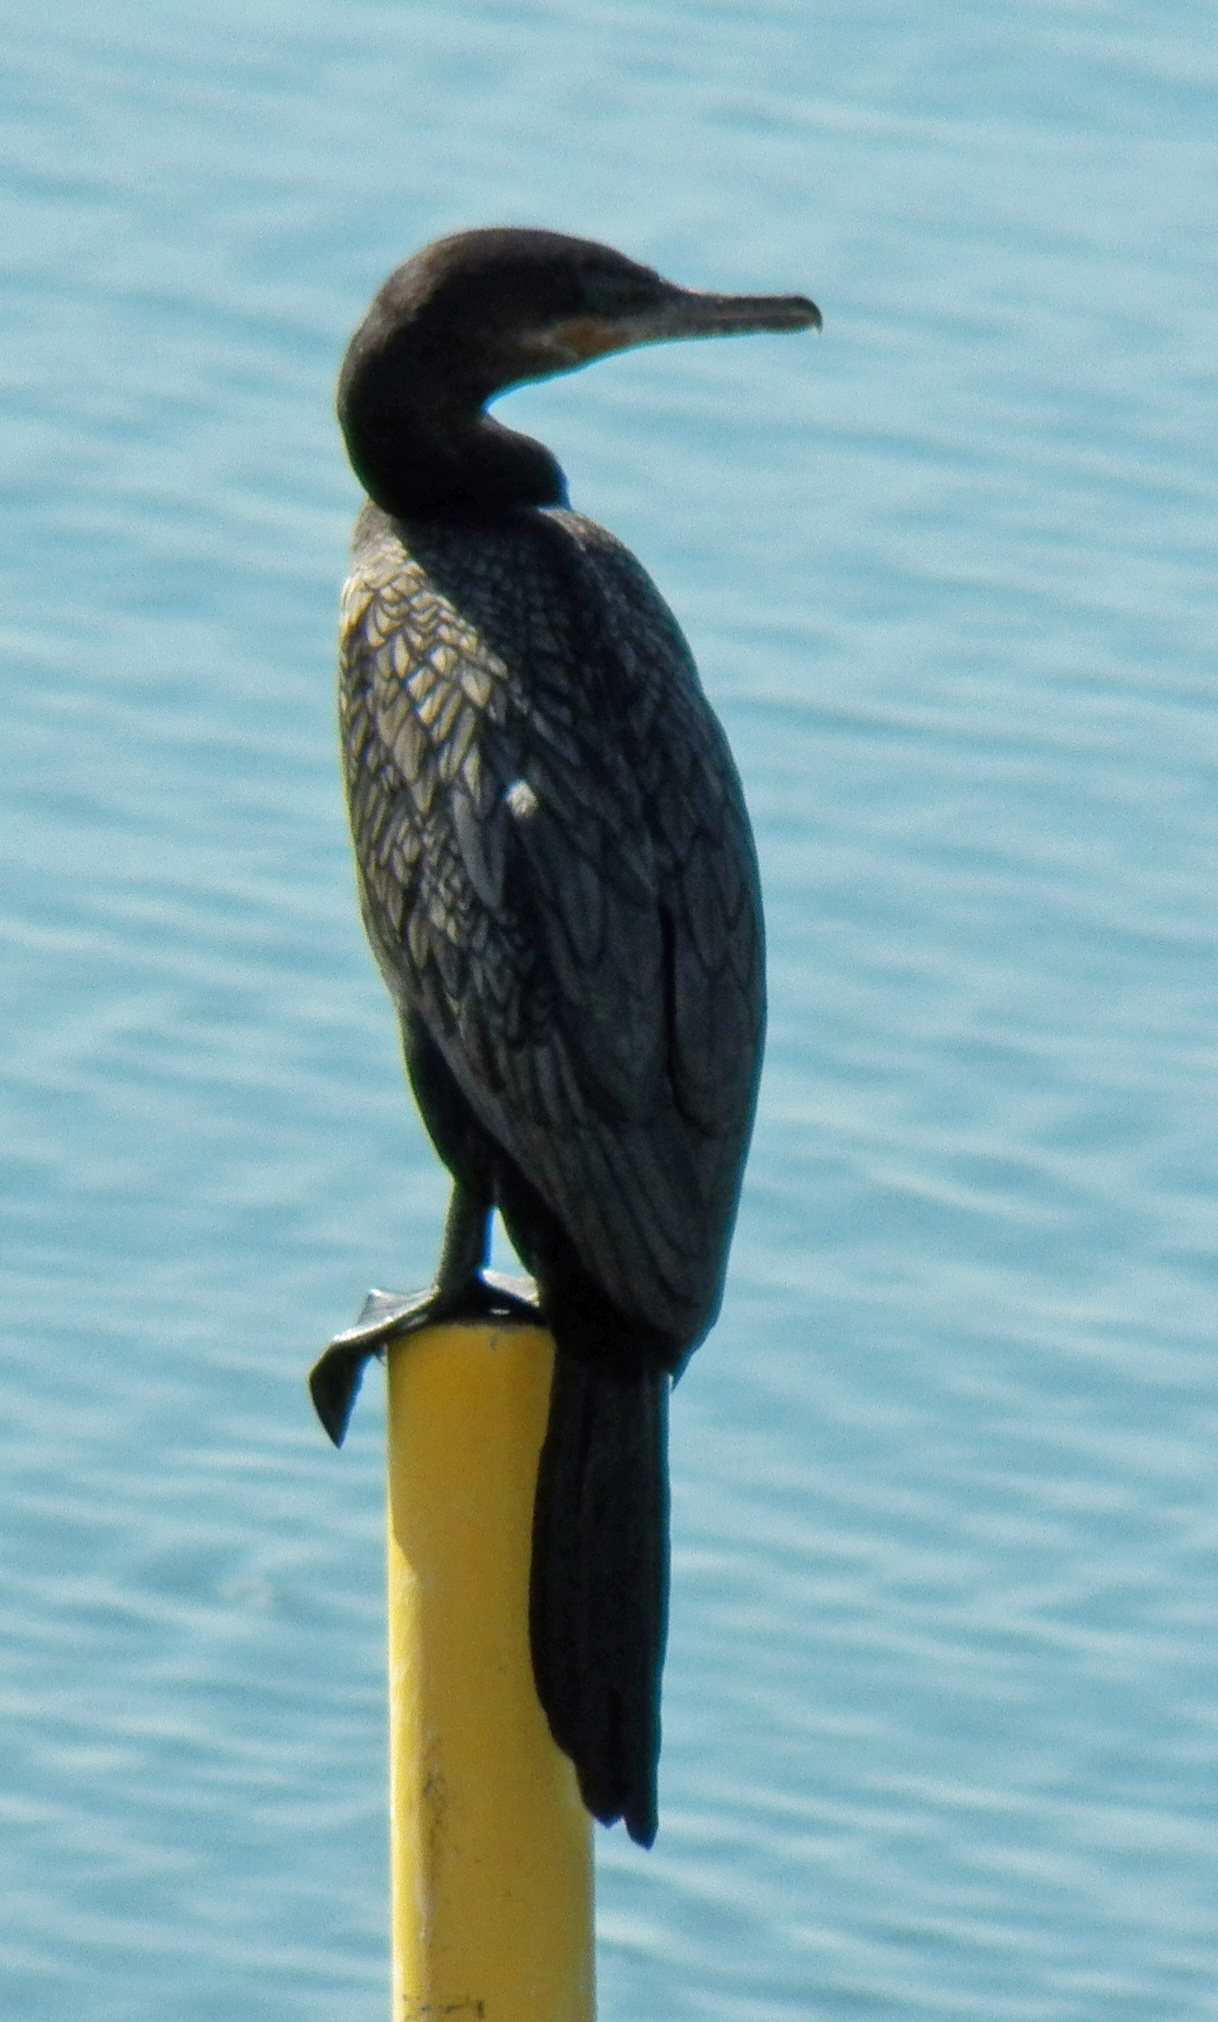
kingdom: Animalia
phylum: Chordata
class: Aves
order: Suliformes
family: Phalacrocoracidae
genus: Phalacrocorax
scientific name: Phalacrocorax brasilianus
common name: Neotropic cormorant
